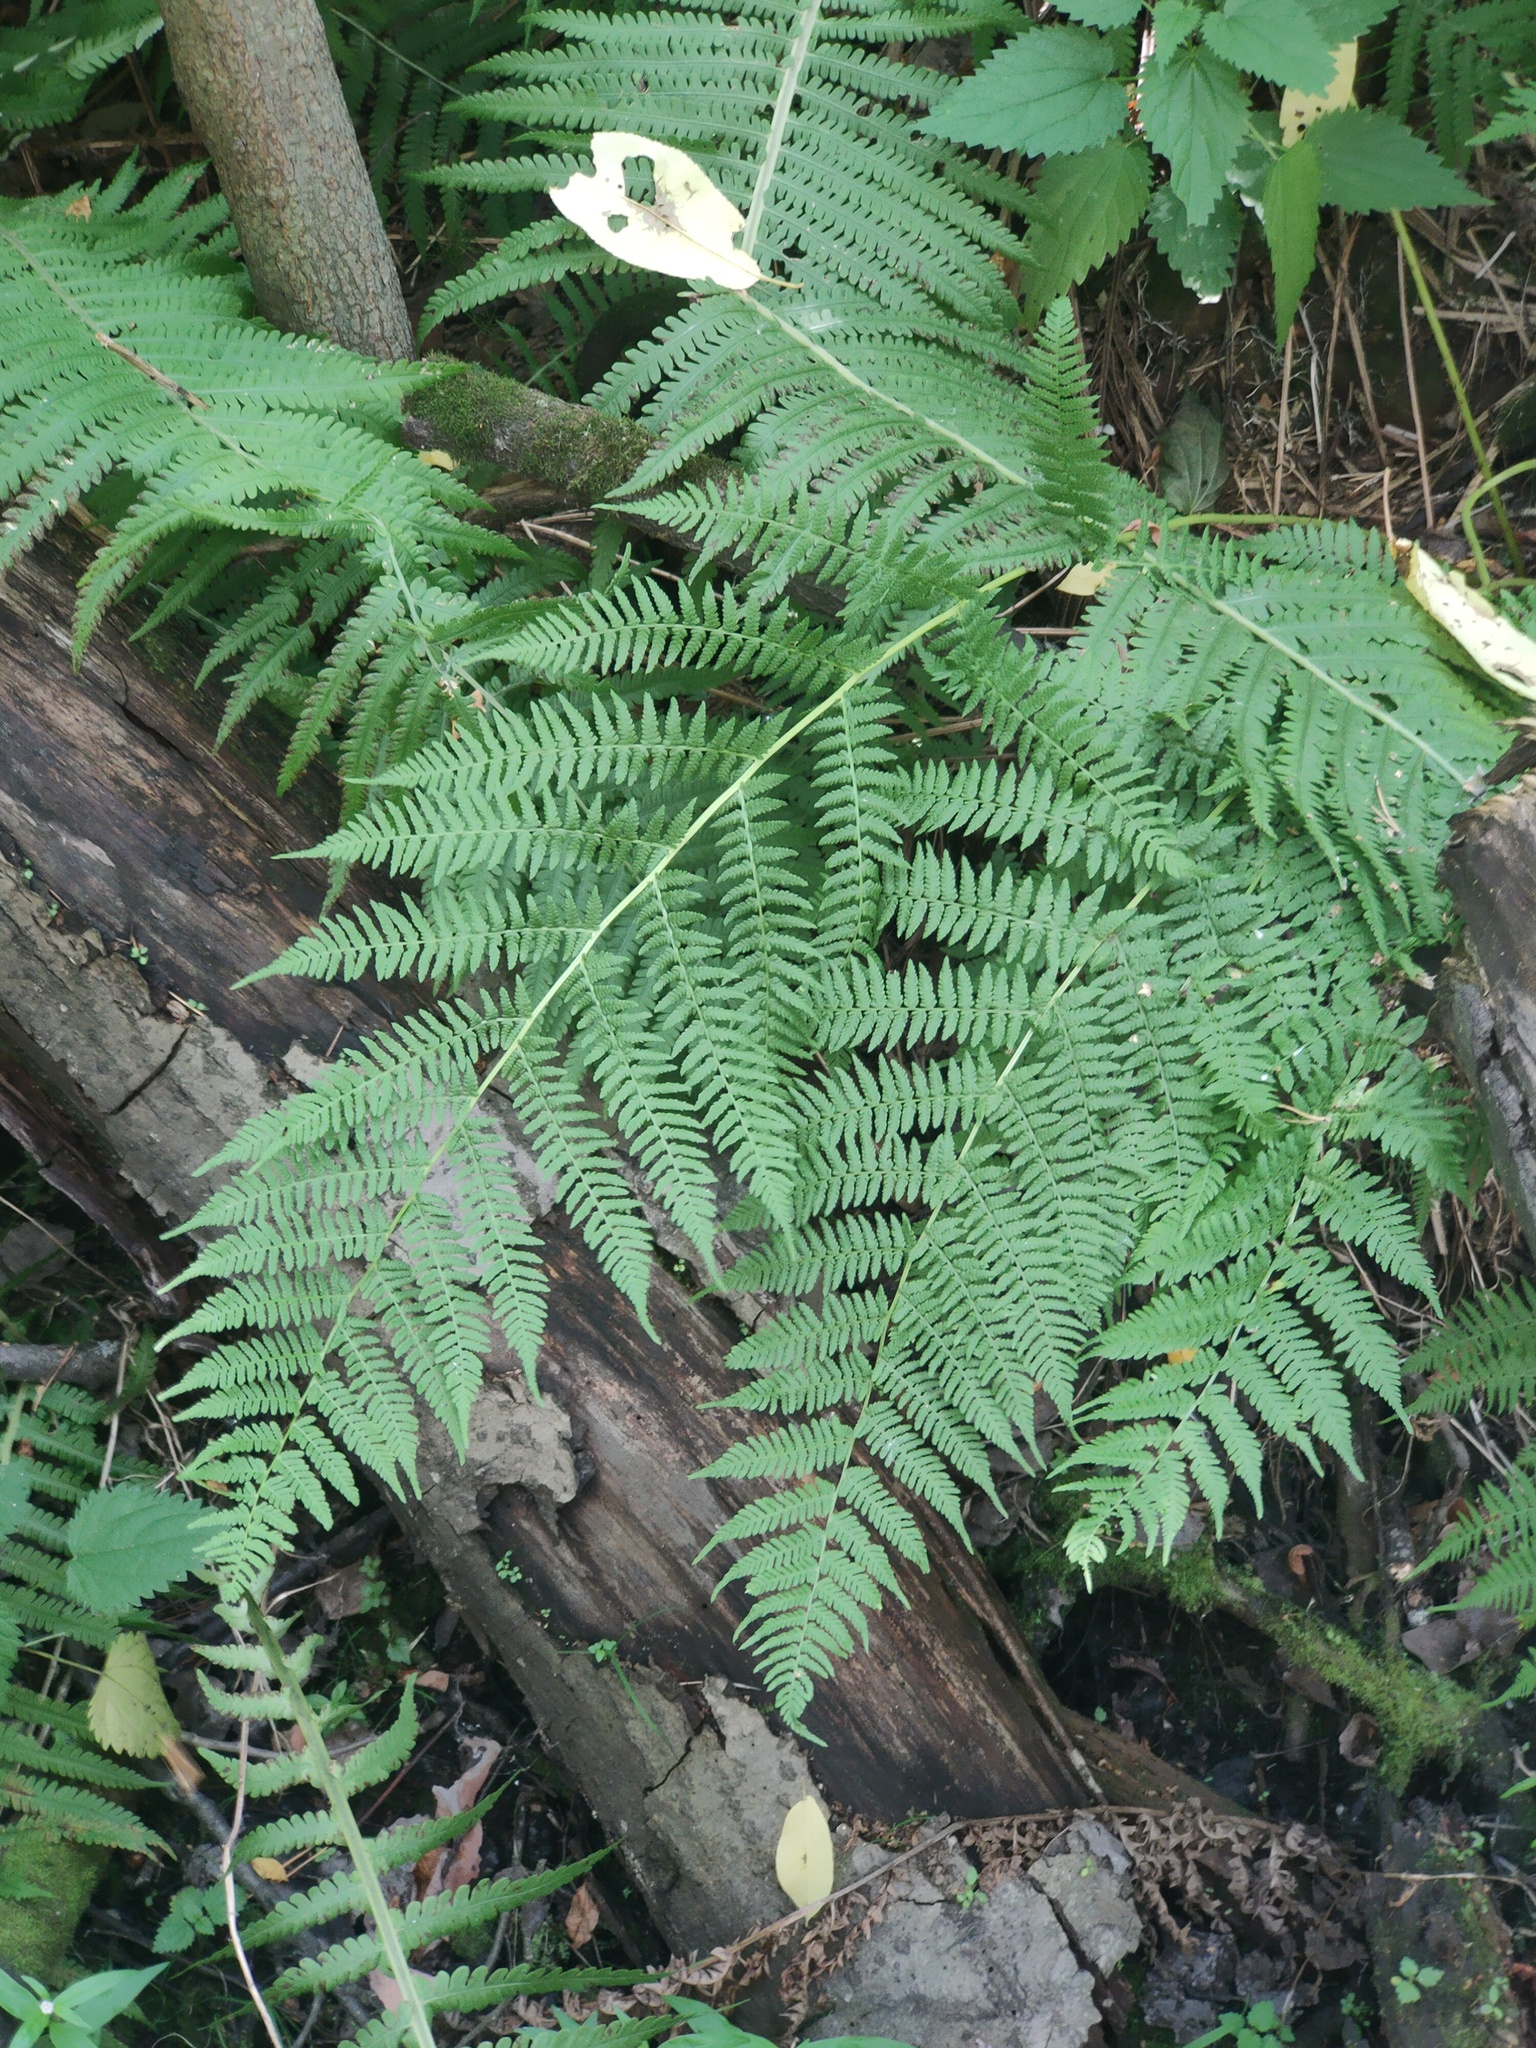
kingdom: Plantae
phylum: Tracheophyta
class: Polypodiopsida
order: Polypodiales
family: Athyriaceae
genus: Athyrium
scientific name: Athyrium filix-femina
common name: Lady fern
